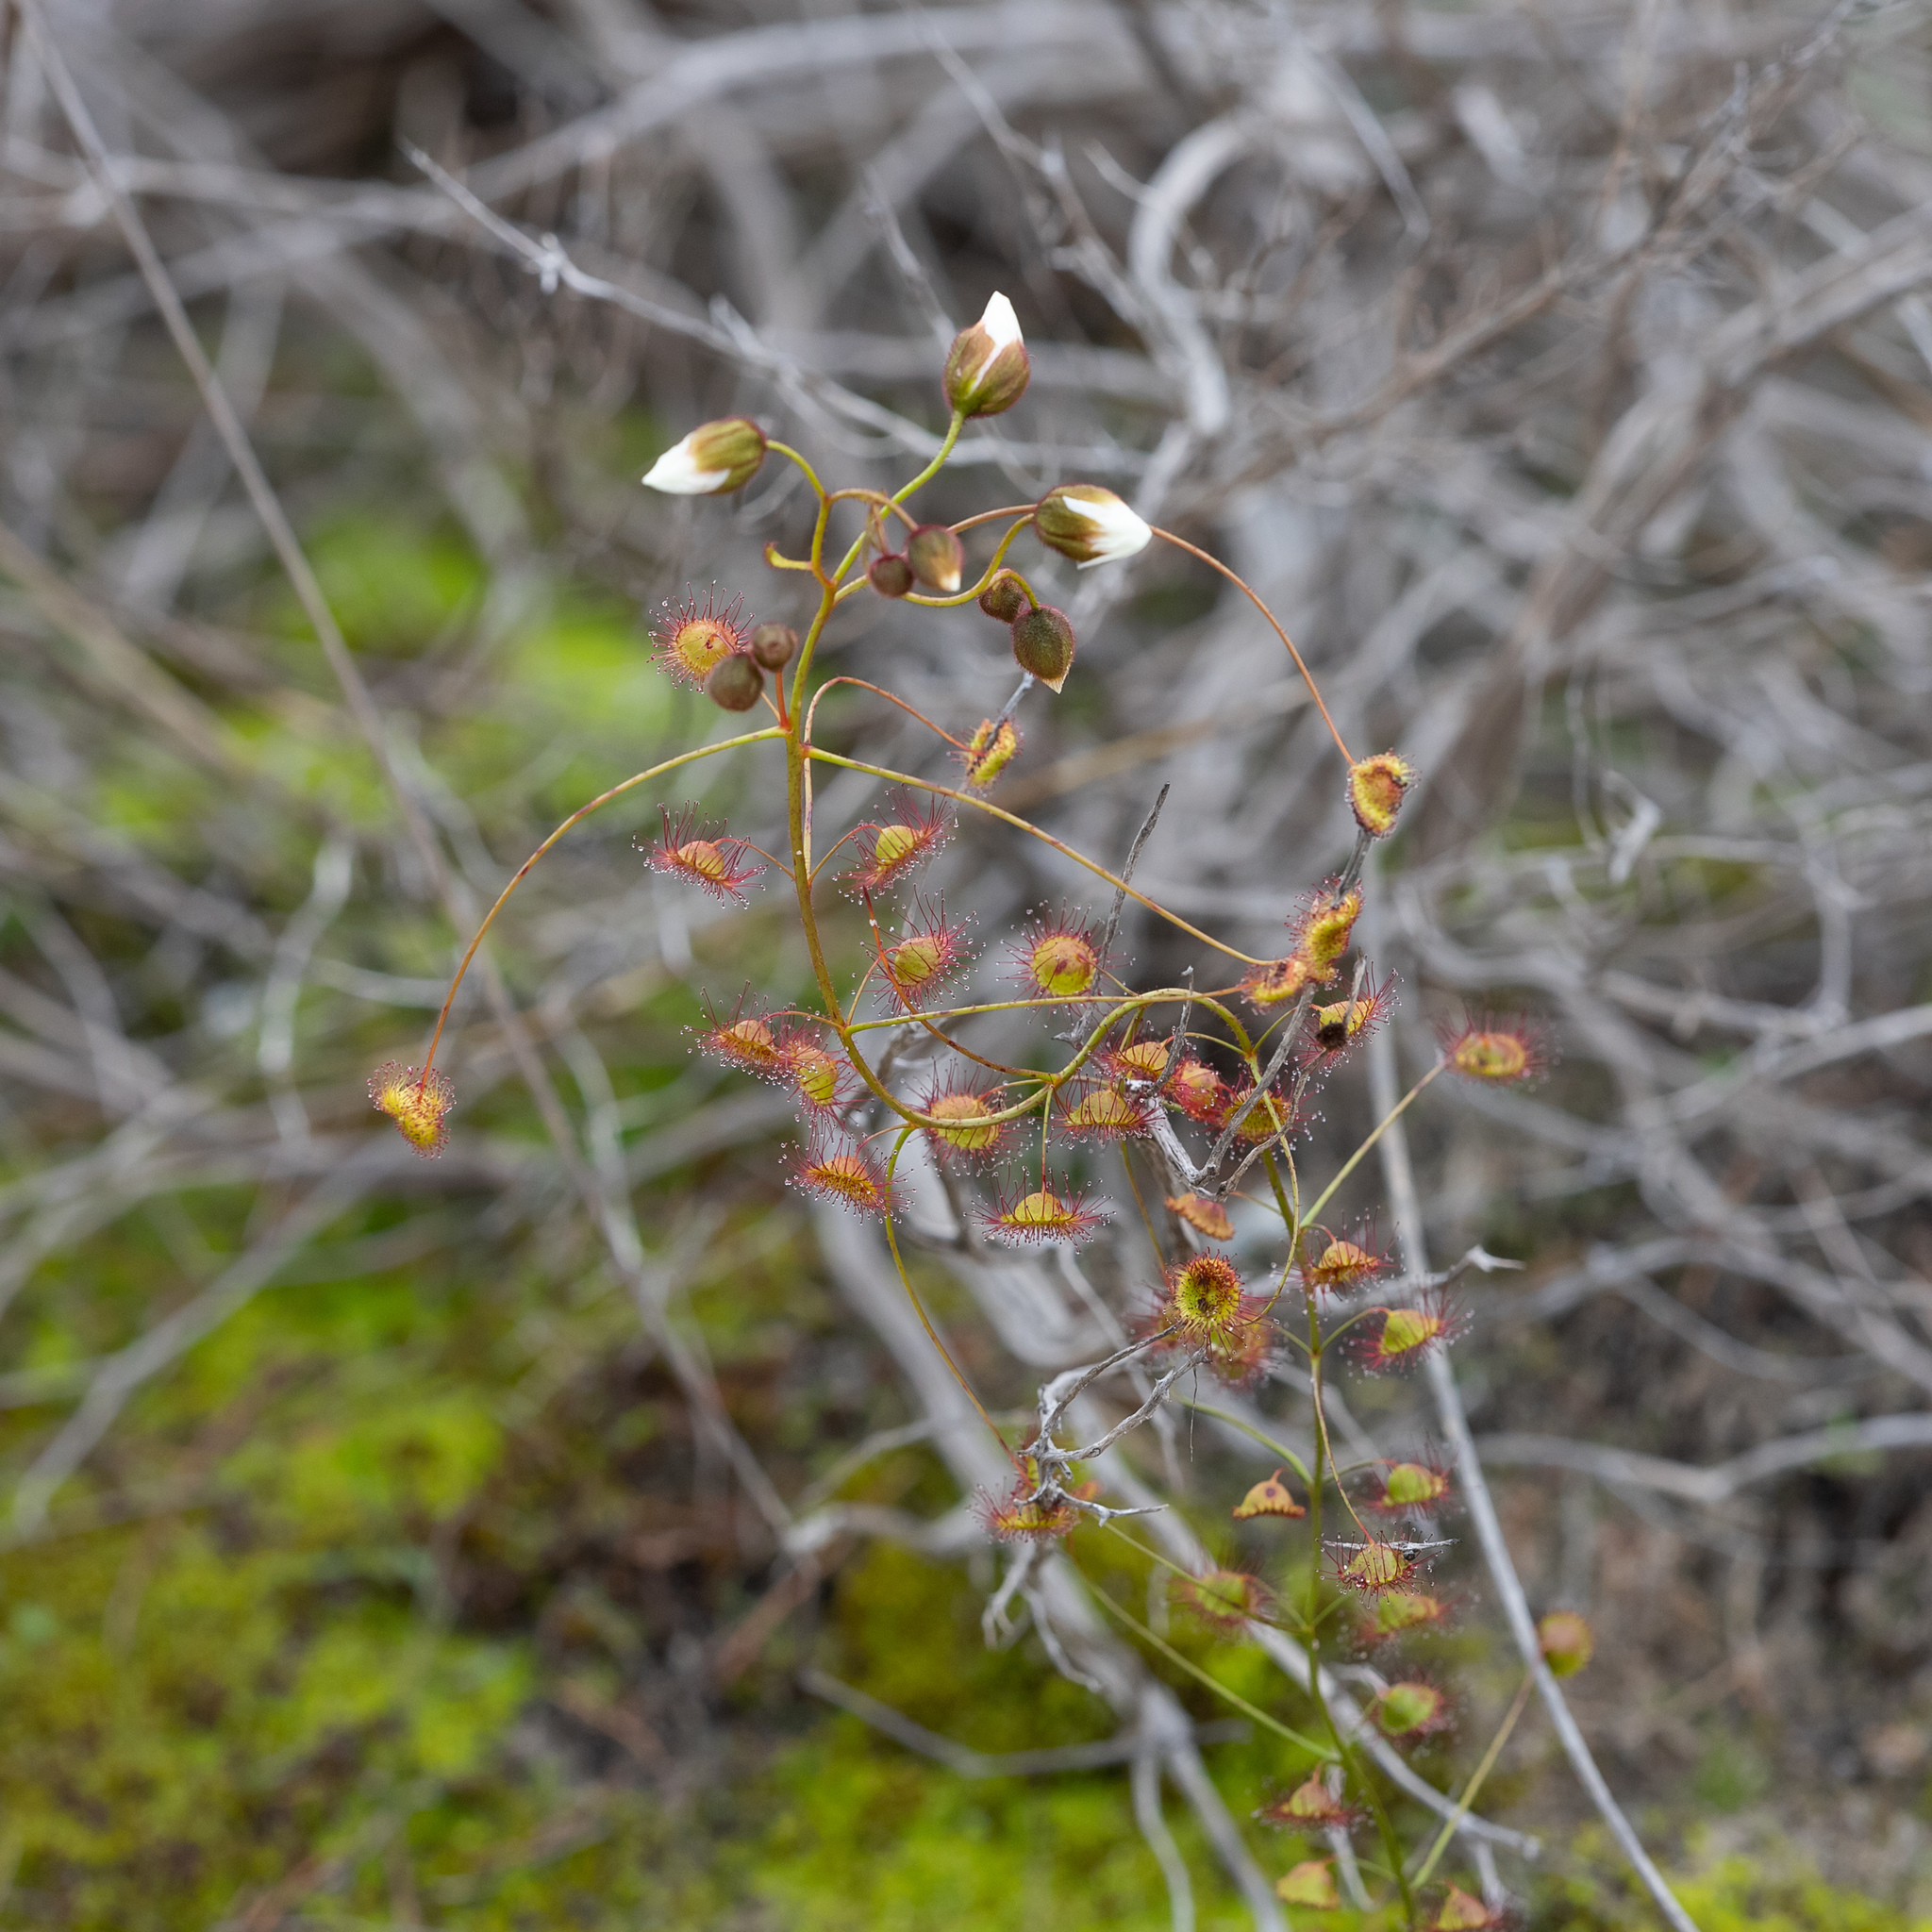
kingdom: Plantae
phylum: Tracheophyta
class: Magnoliopsida
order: Caryophyllales
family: Droseraceae
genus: Drosera
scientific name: Drosera planchonii
